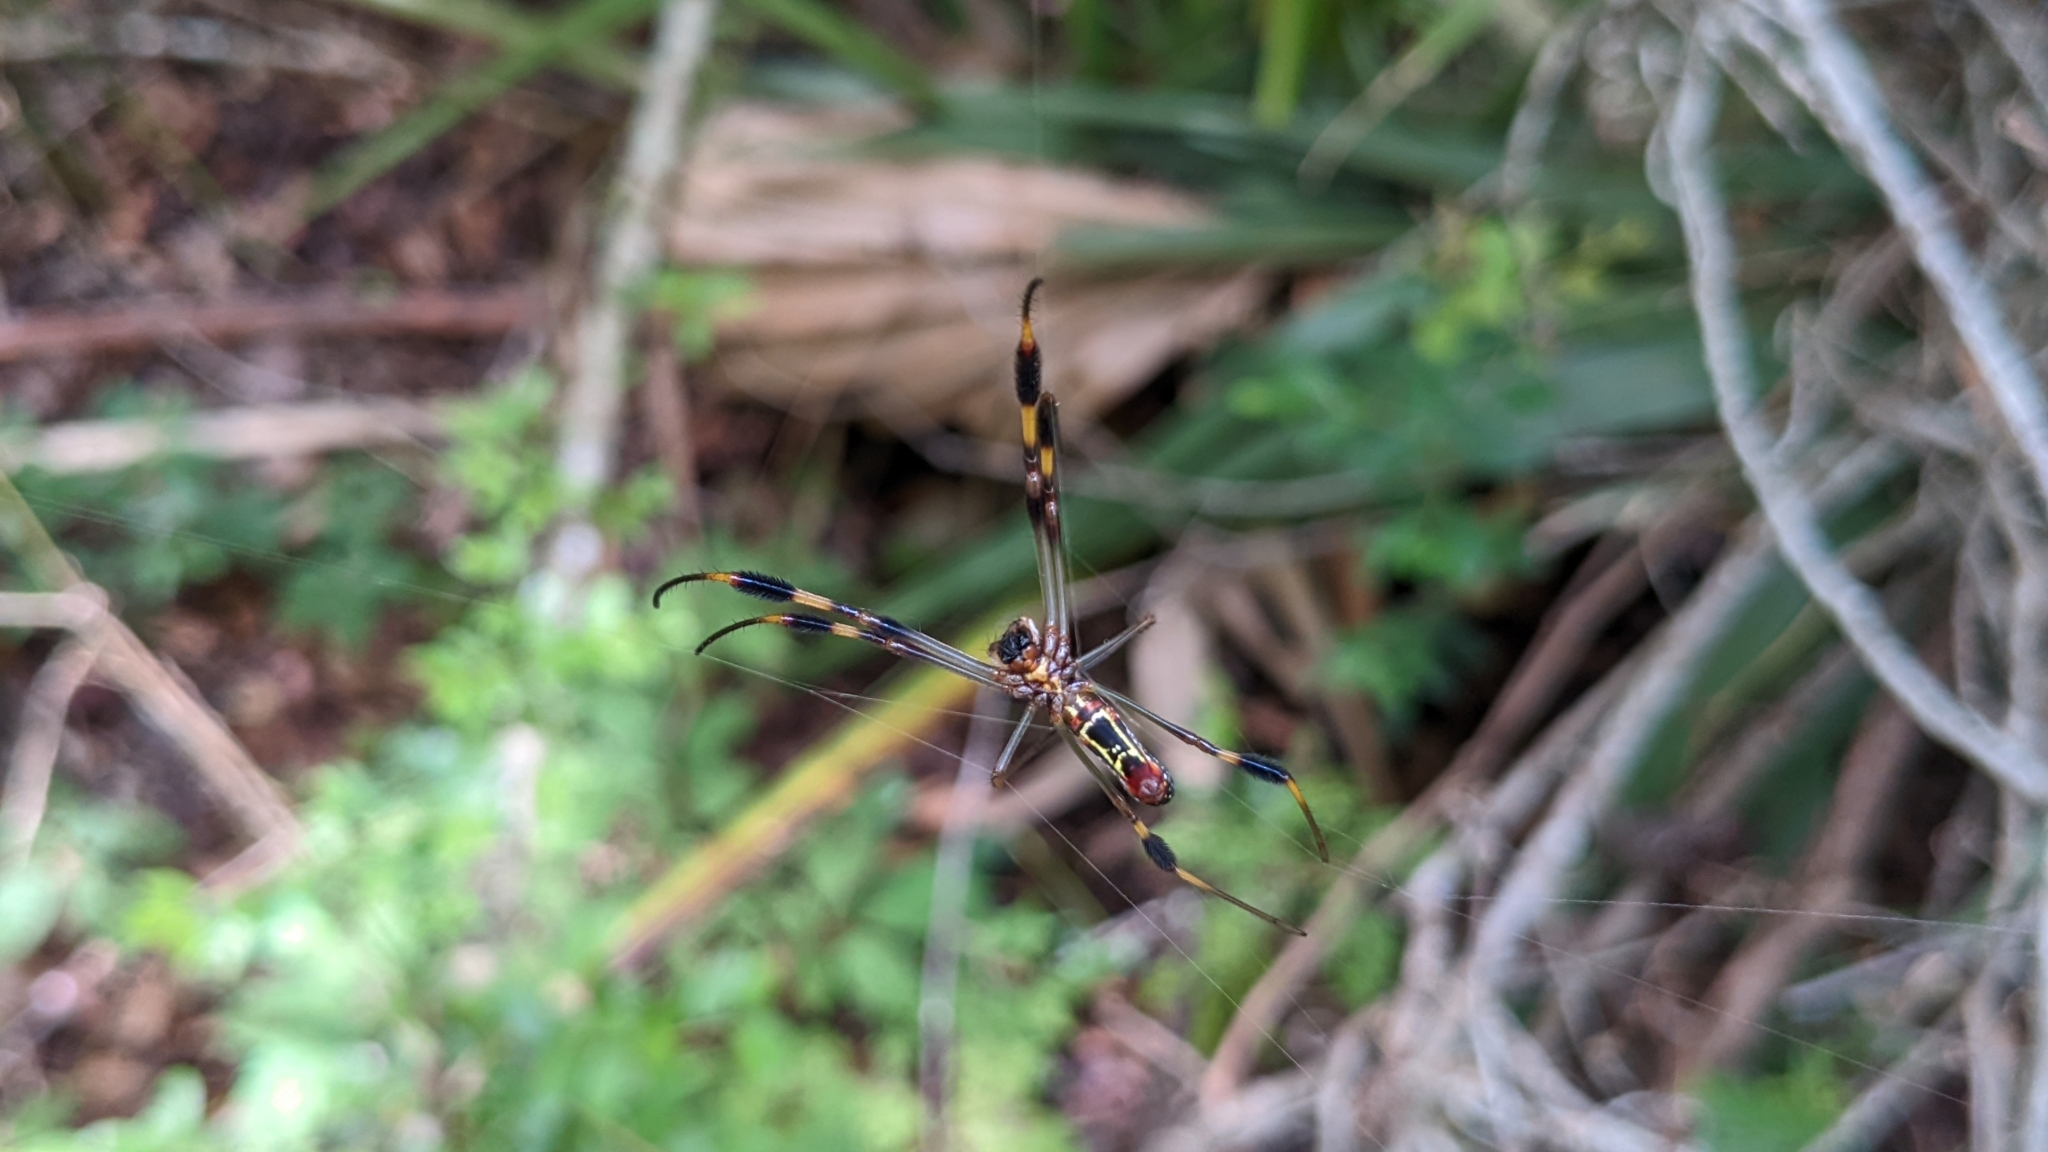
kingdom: Animalia
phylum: Arthropoda
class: Arachnida
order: Araneae
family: Araneidae
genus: Trichonephila
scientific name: Trichonephila clavipes
